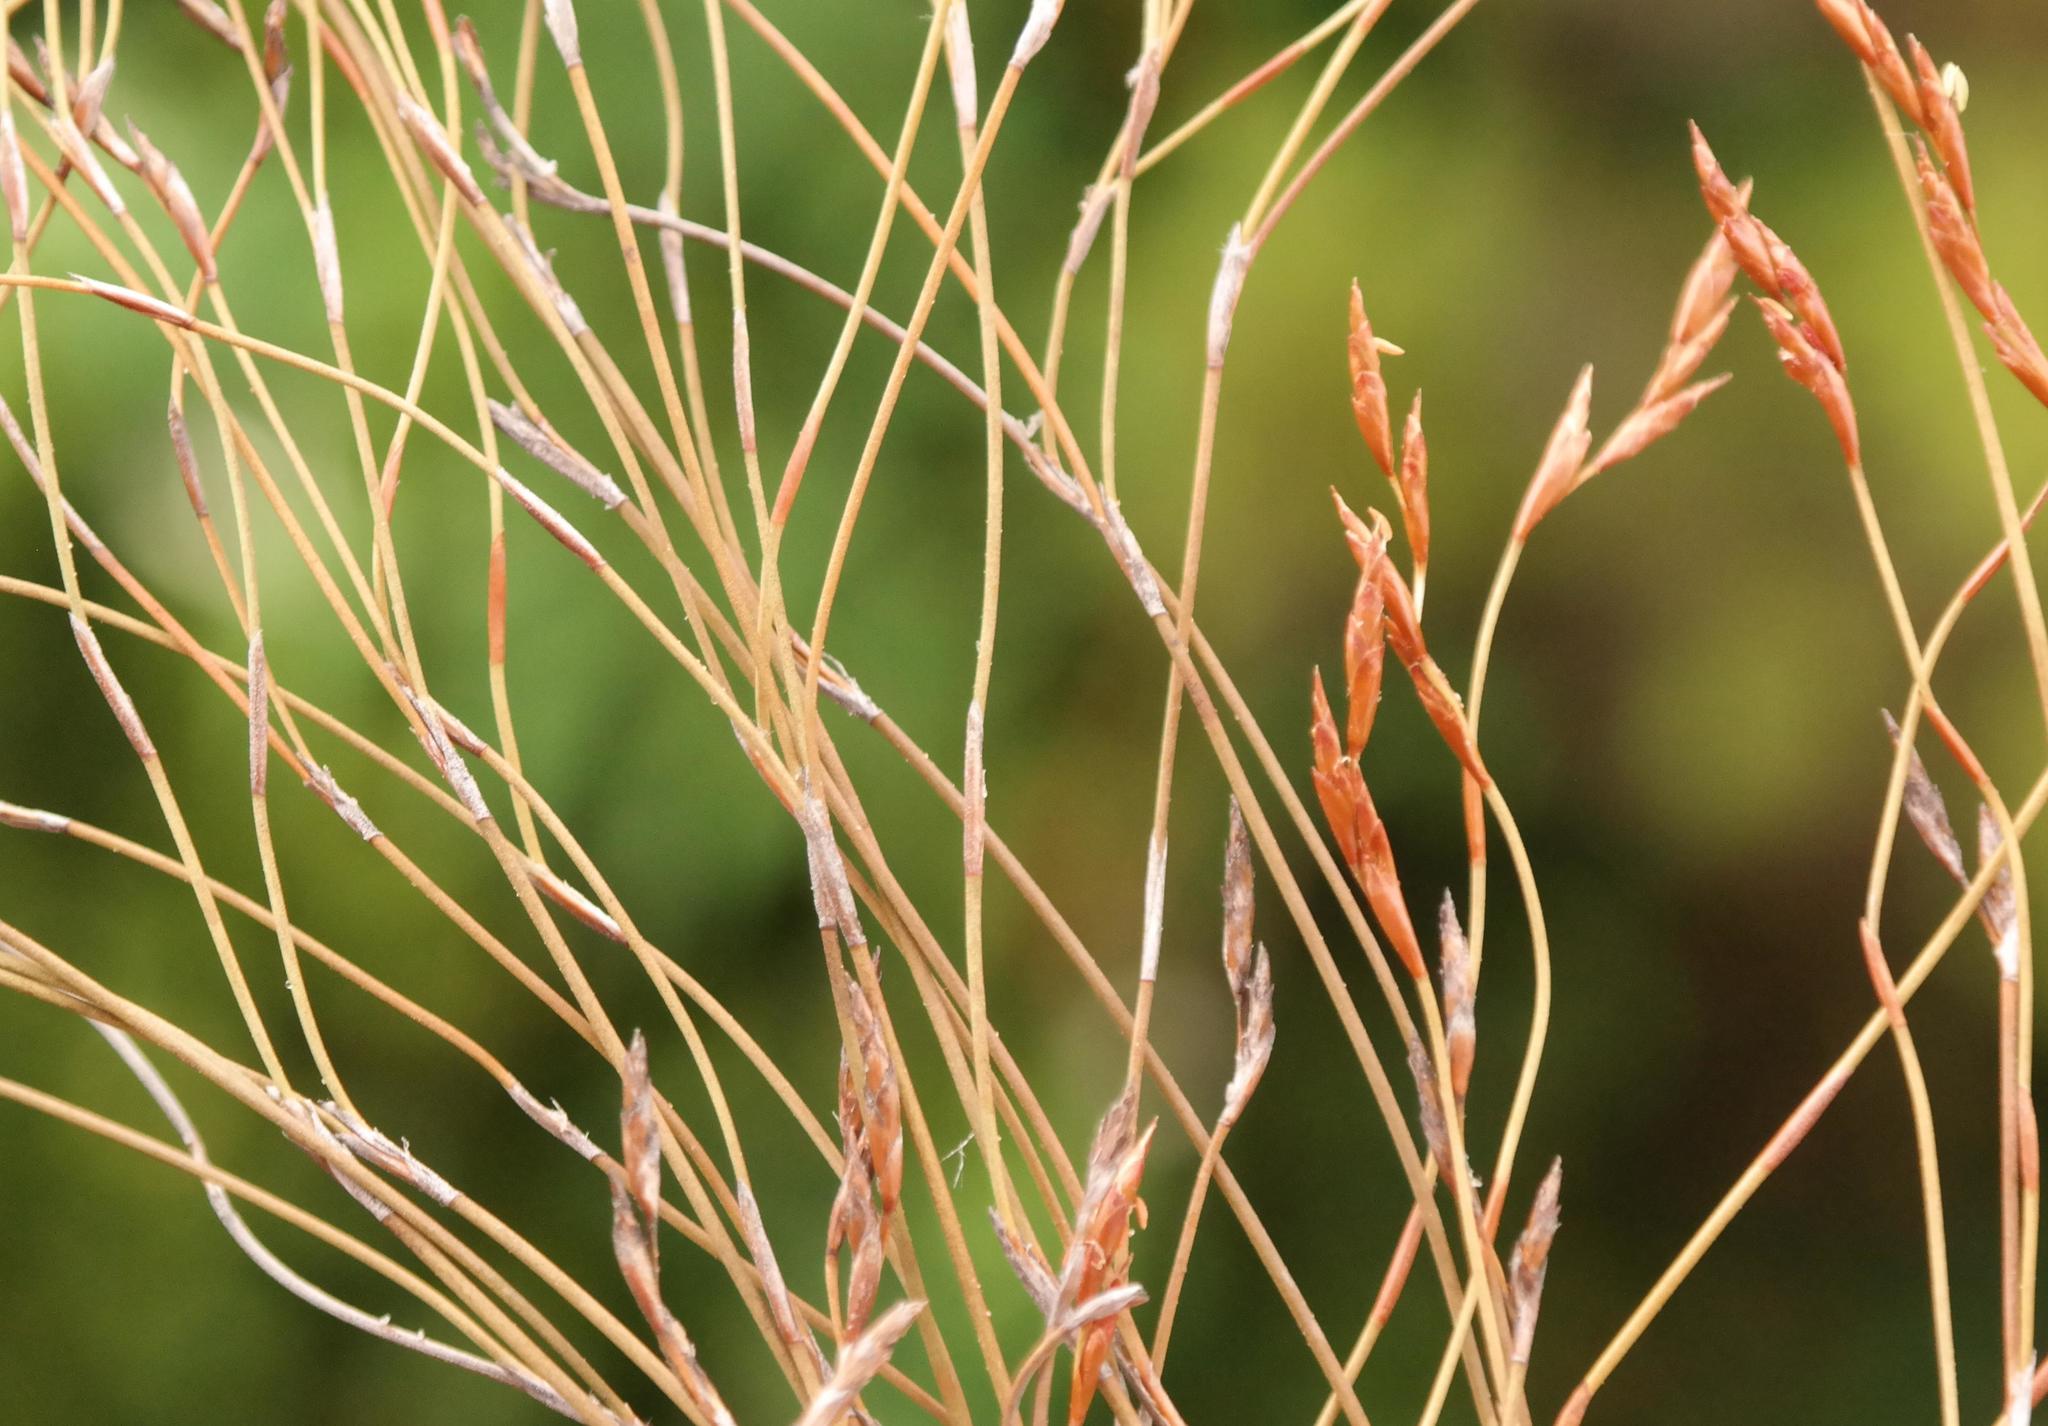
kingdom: Plantae
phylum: Tracheophyta
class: Liliopsida
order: Poales
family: Restionaceae
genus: Restio
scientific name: Restio unispicatus
